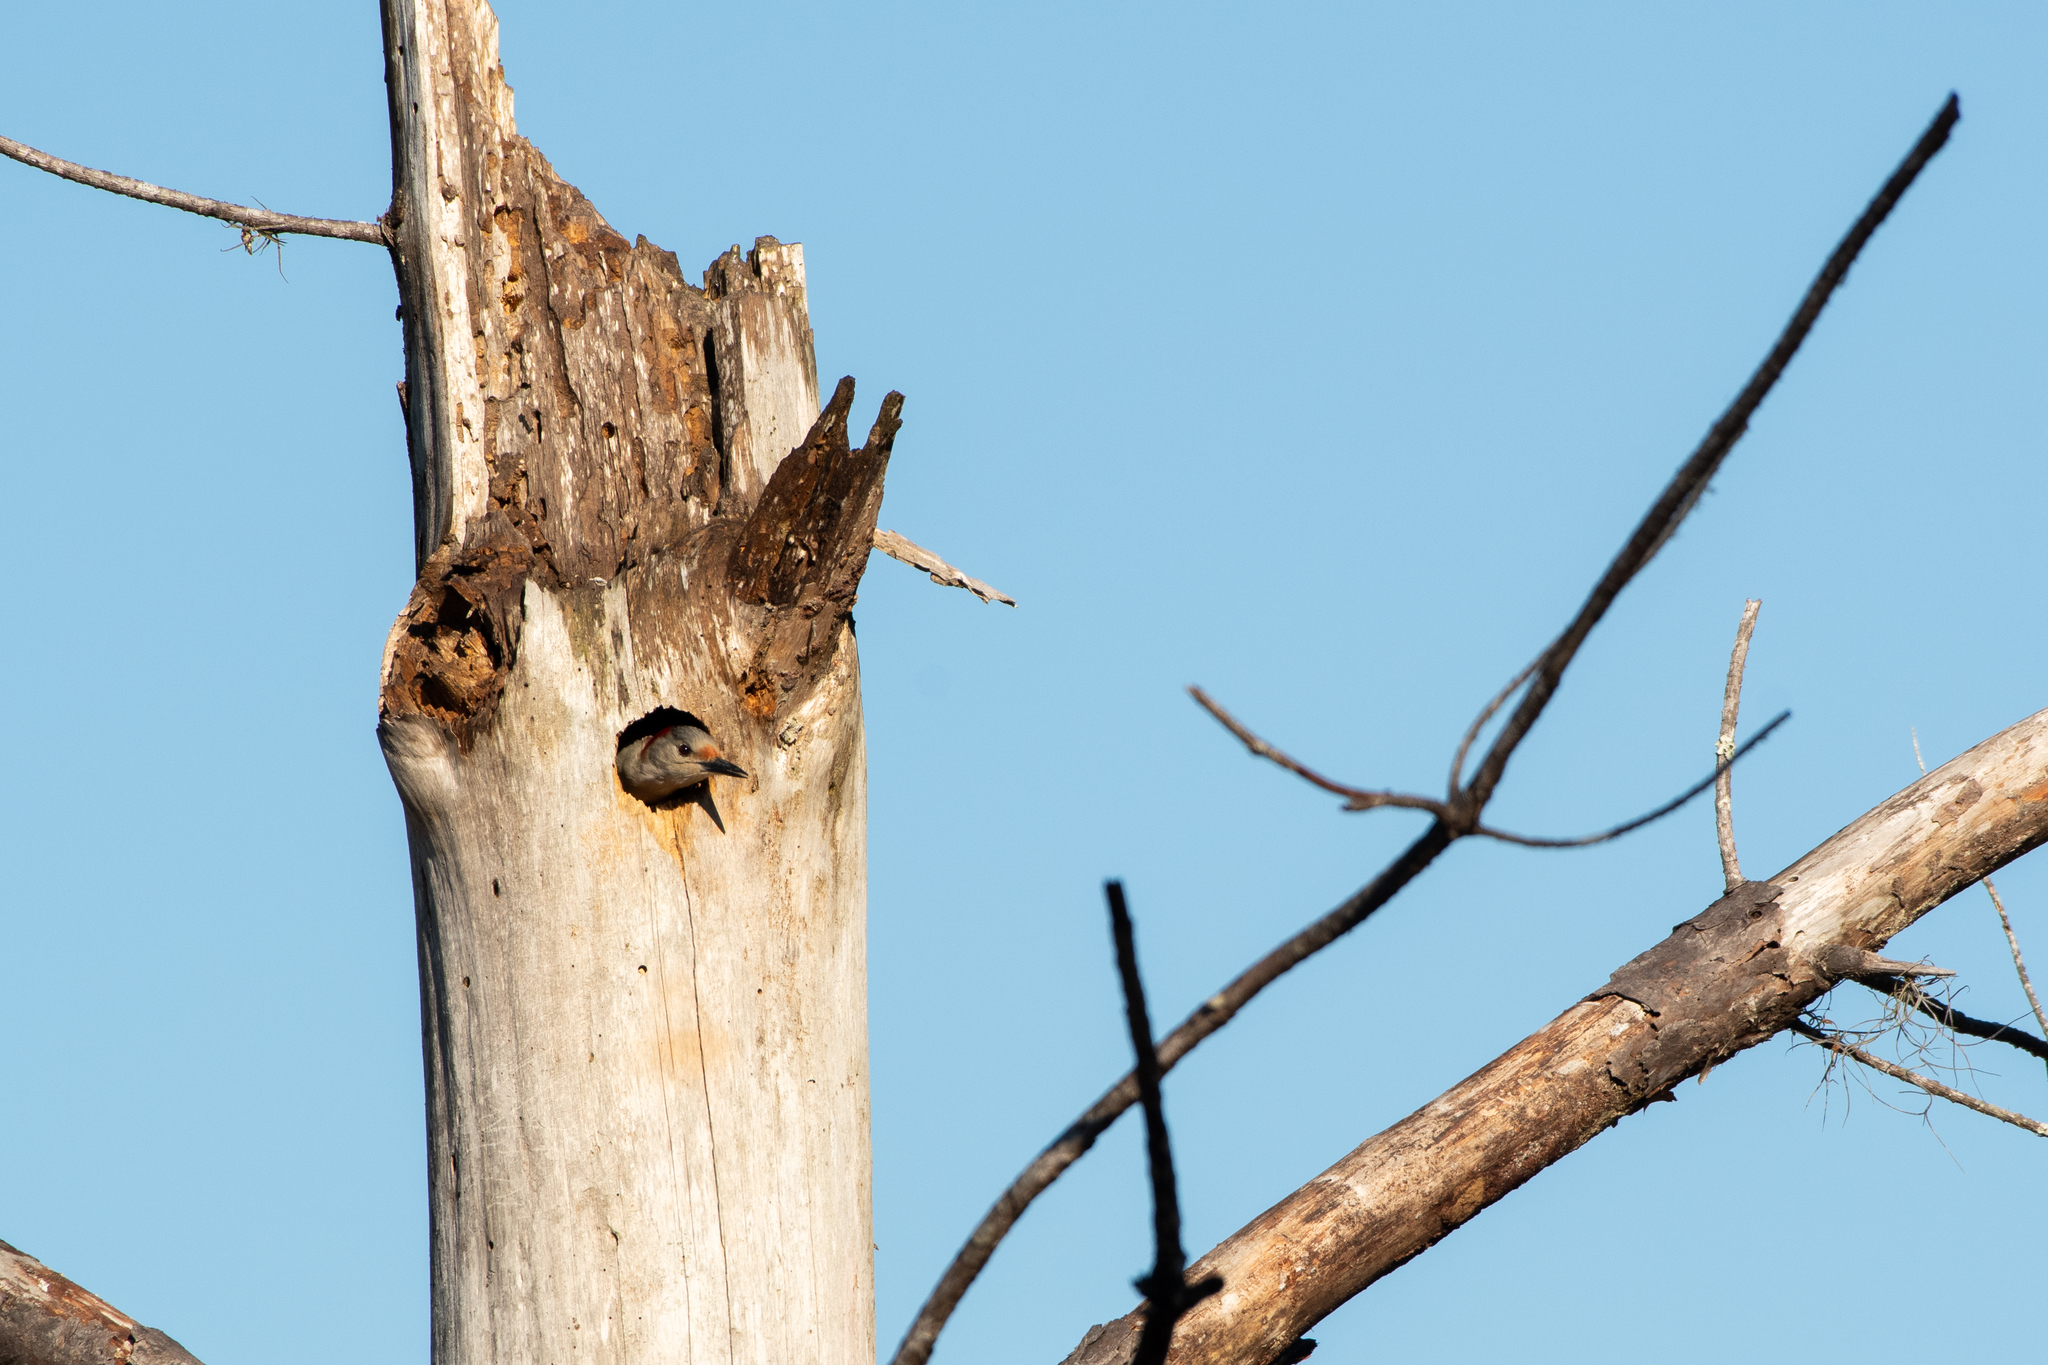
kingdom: Animalia
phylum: Chordata
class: Aves
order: Piciformes
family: Picidae
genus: Melanerpes
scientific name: Melanerpes carolinus
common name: Red-bellied woodpecker
